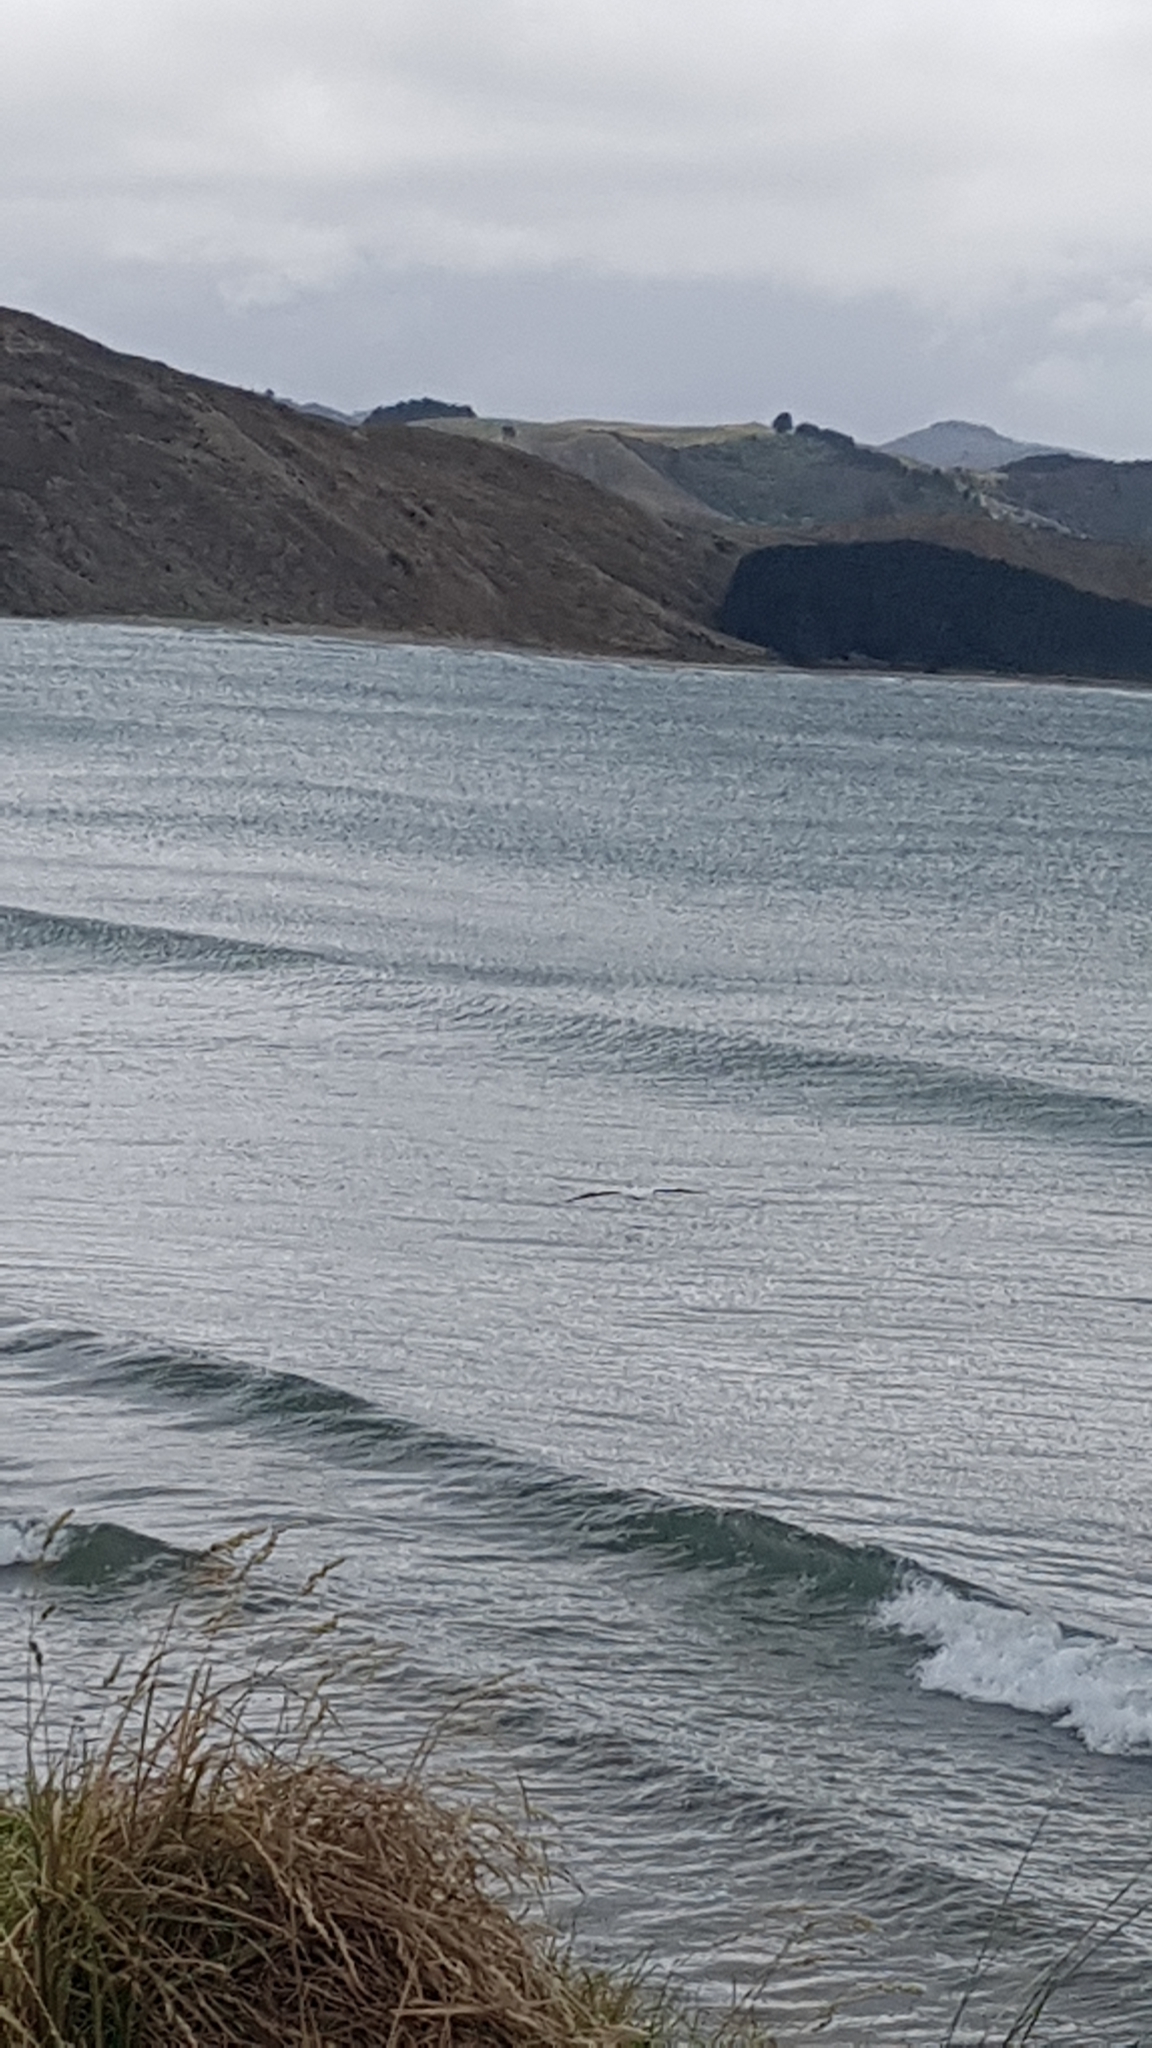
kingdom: Animalia
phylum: Chordata
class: Aves
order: Suliformes
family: Sulidae
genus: Morus
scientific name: Morus serrator
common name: Australasian gannet
